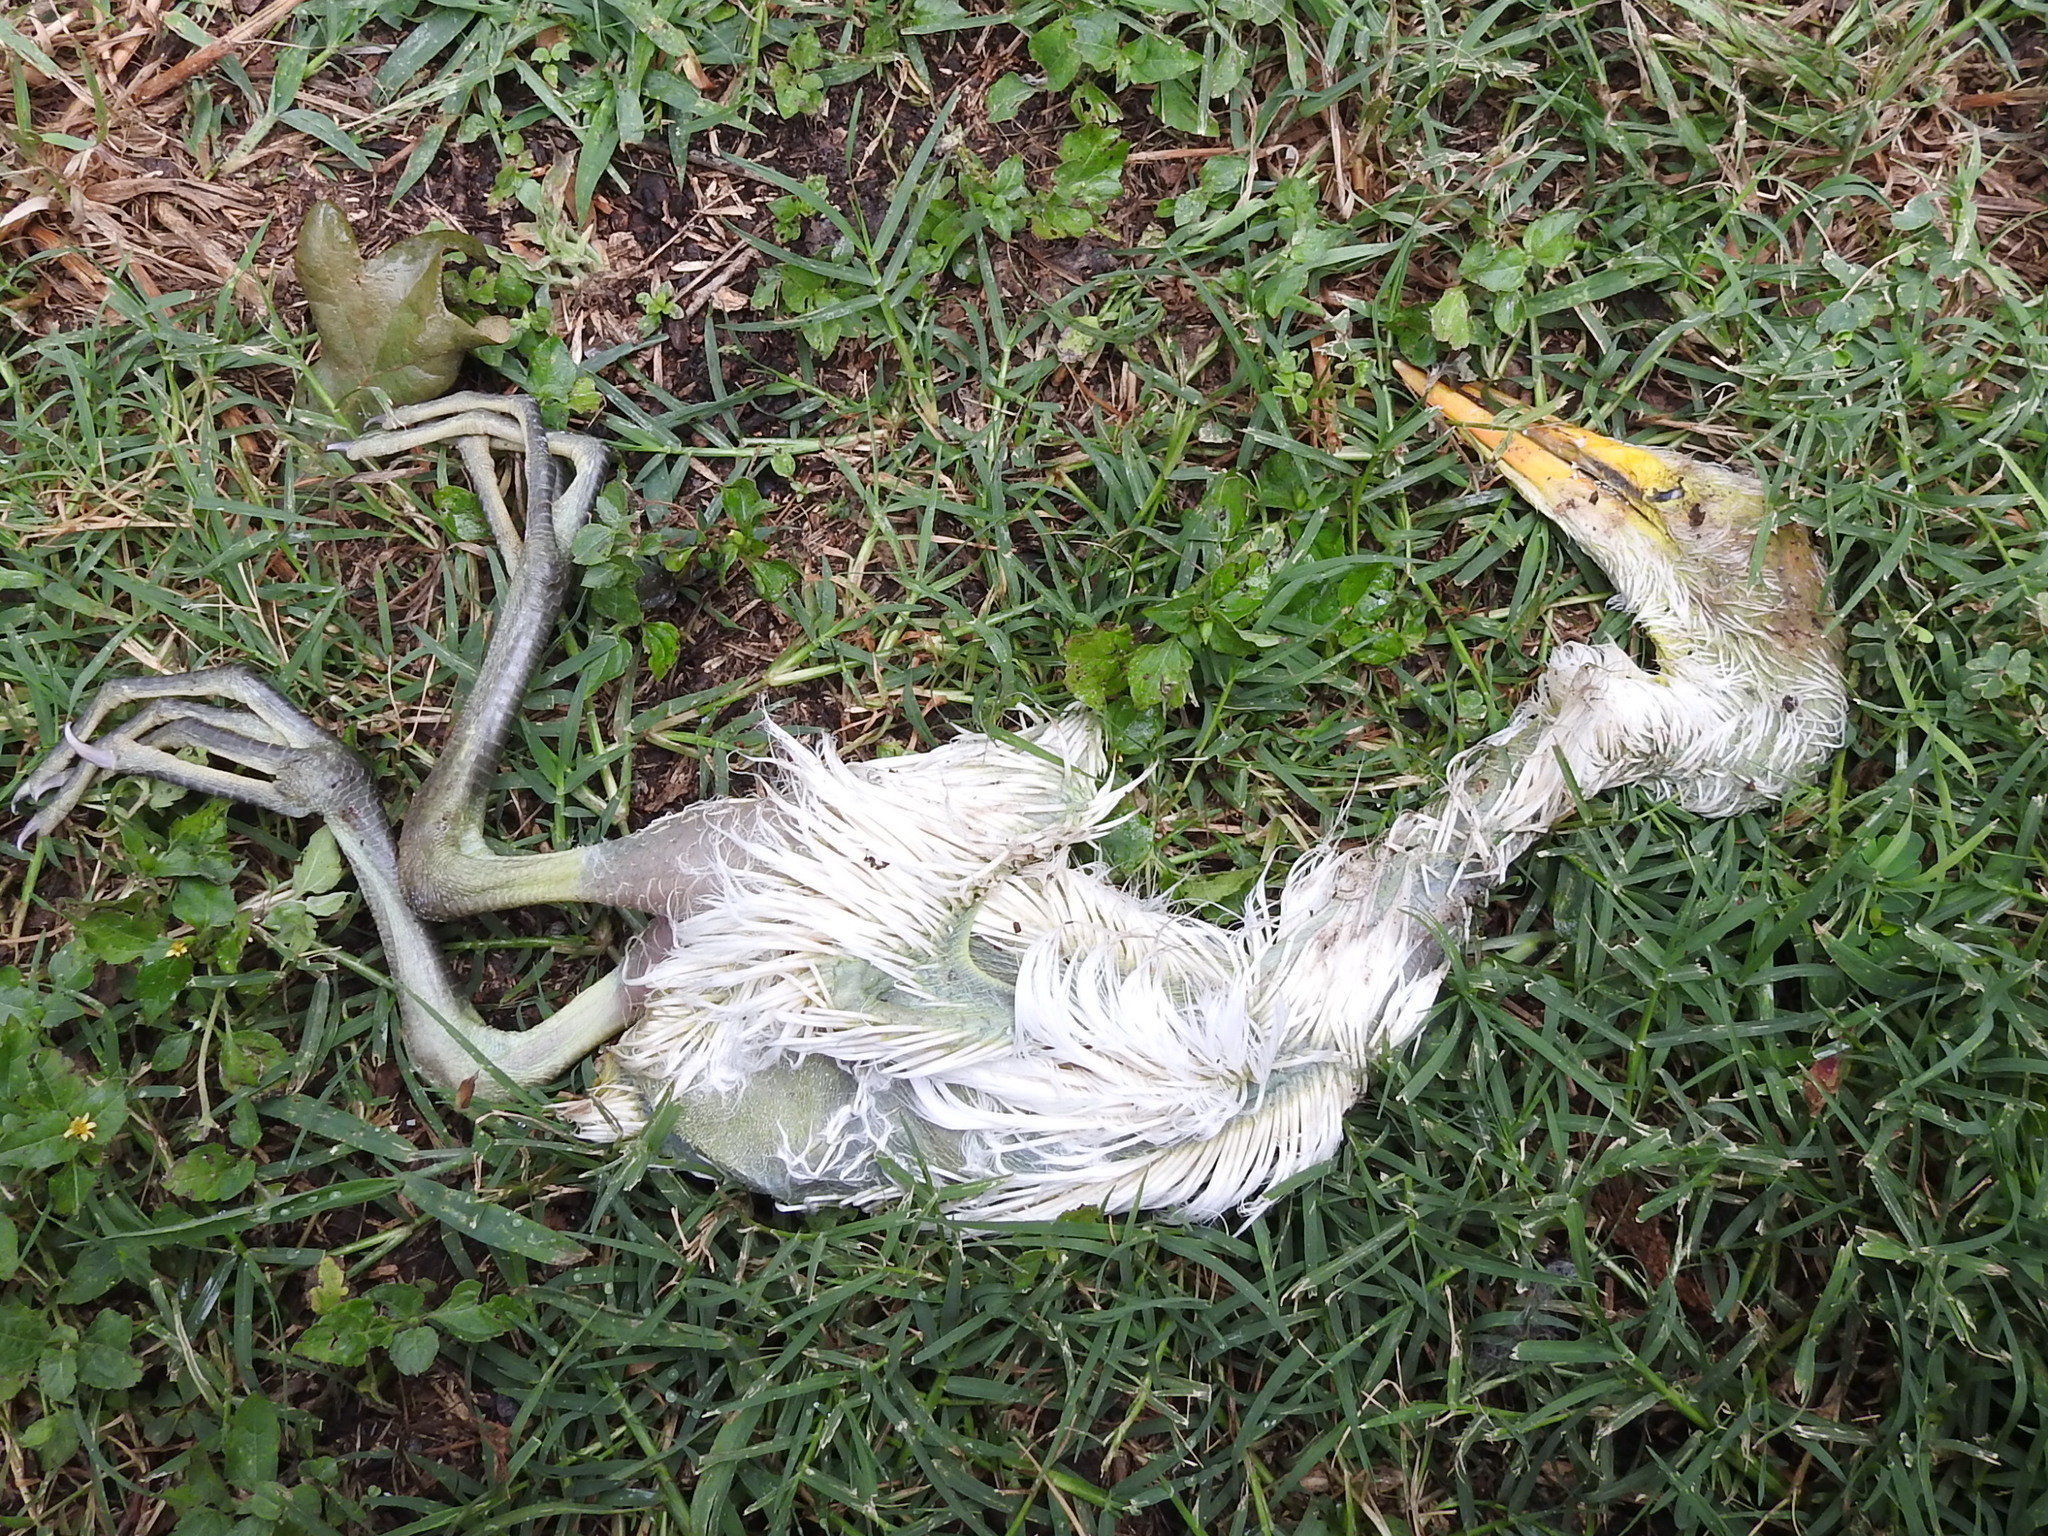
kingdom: Animalia
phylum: Chordata
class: Aves
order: Pelecaniformes
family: Ardeidae
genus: Ardea
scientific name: Ardea alba
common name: Great egret
